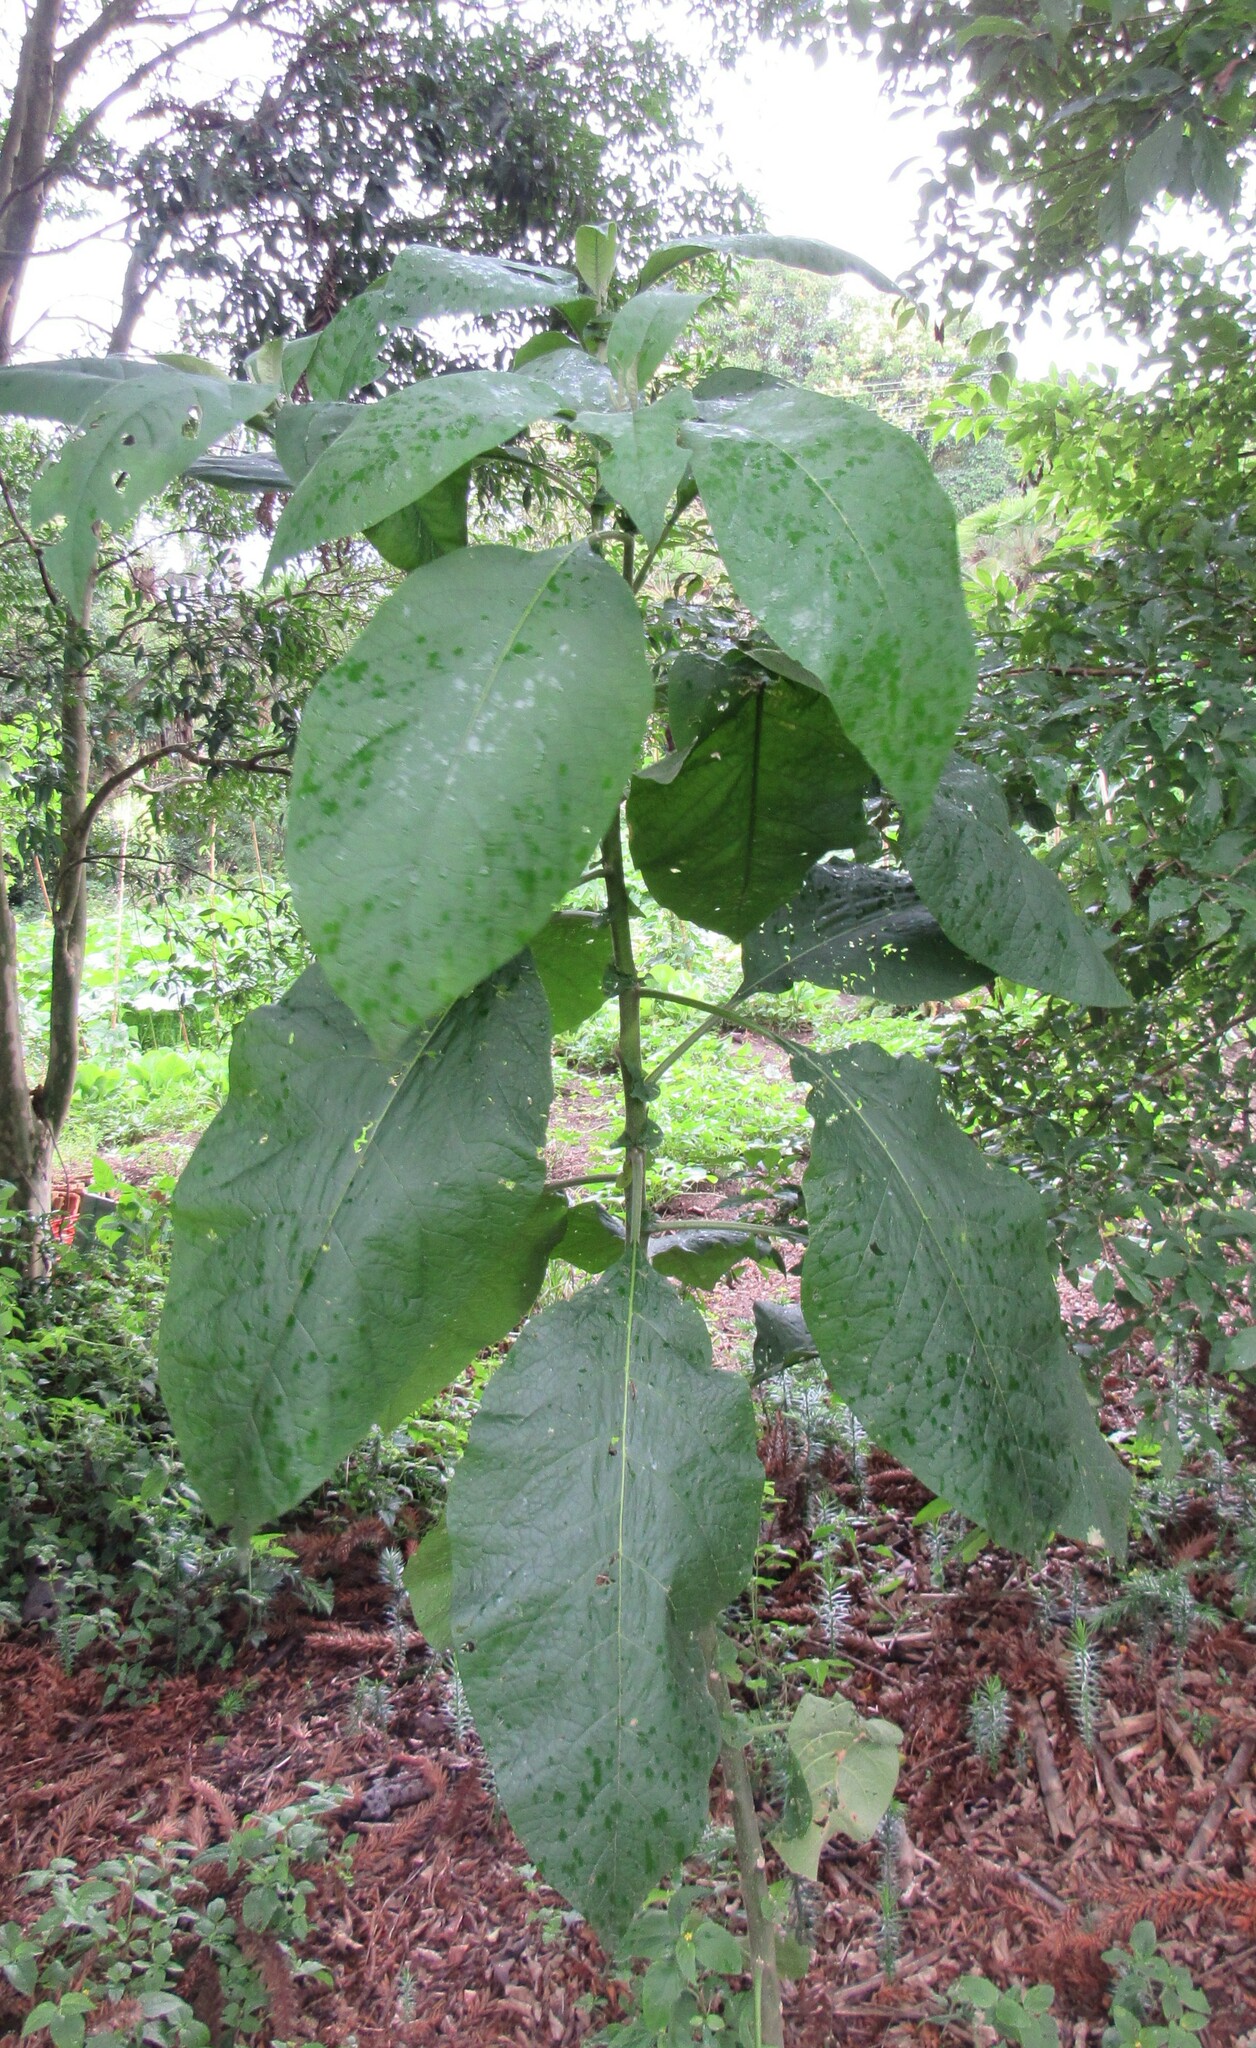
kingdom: Plantae
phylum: Tracheophyta
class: Magnoliopsida
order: Solanales
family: Solanaceae
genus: Solanum
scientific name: Solanum mauritianum
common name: Earleaf nightshade
